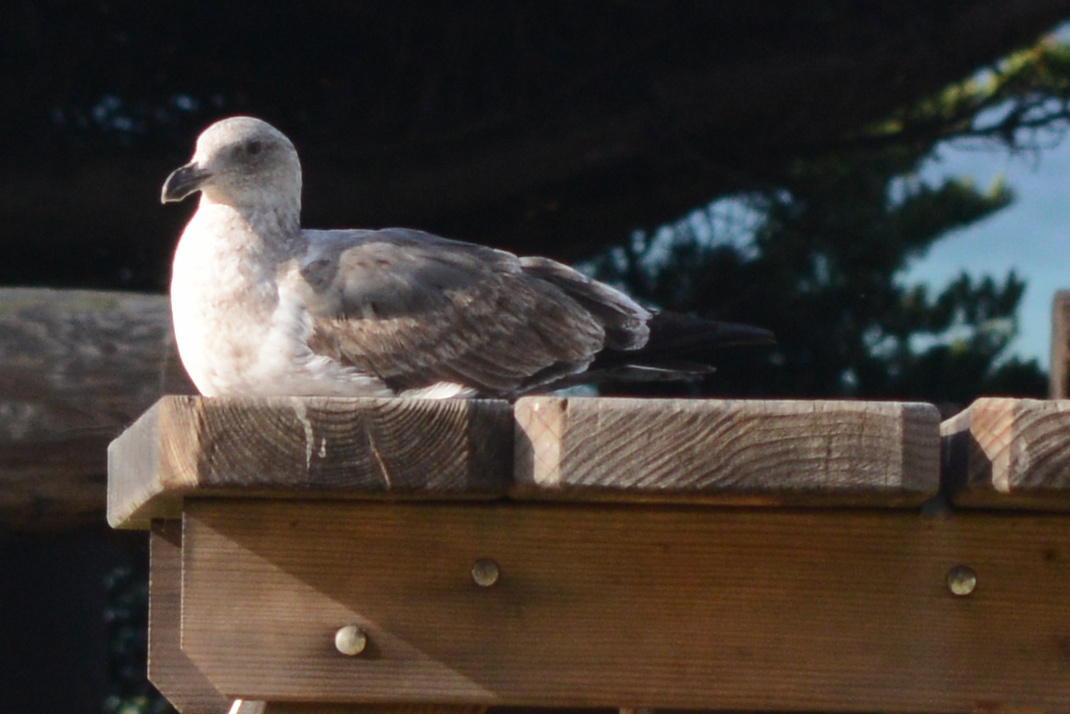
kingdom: Animalia
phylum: Chordata
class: Aves
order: Charadriiformes
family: Laridae
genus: Larus
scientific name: Larus occidentalis
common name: Western gull
